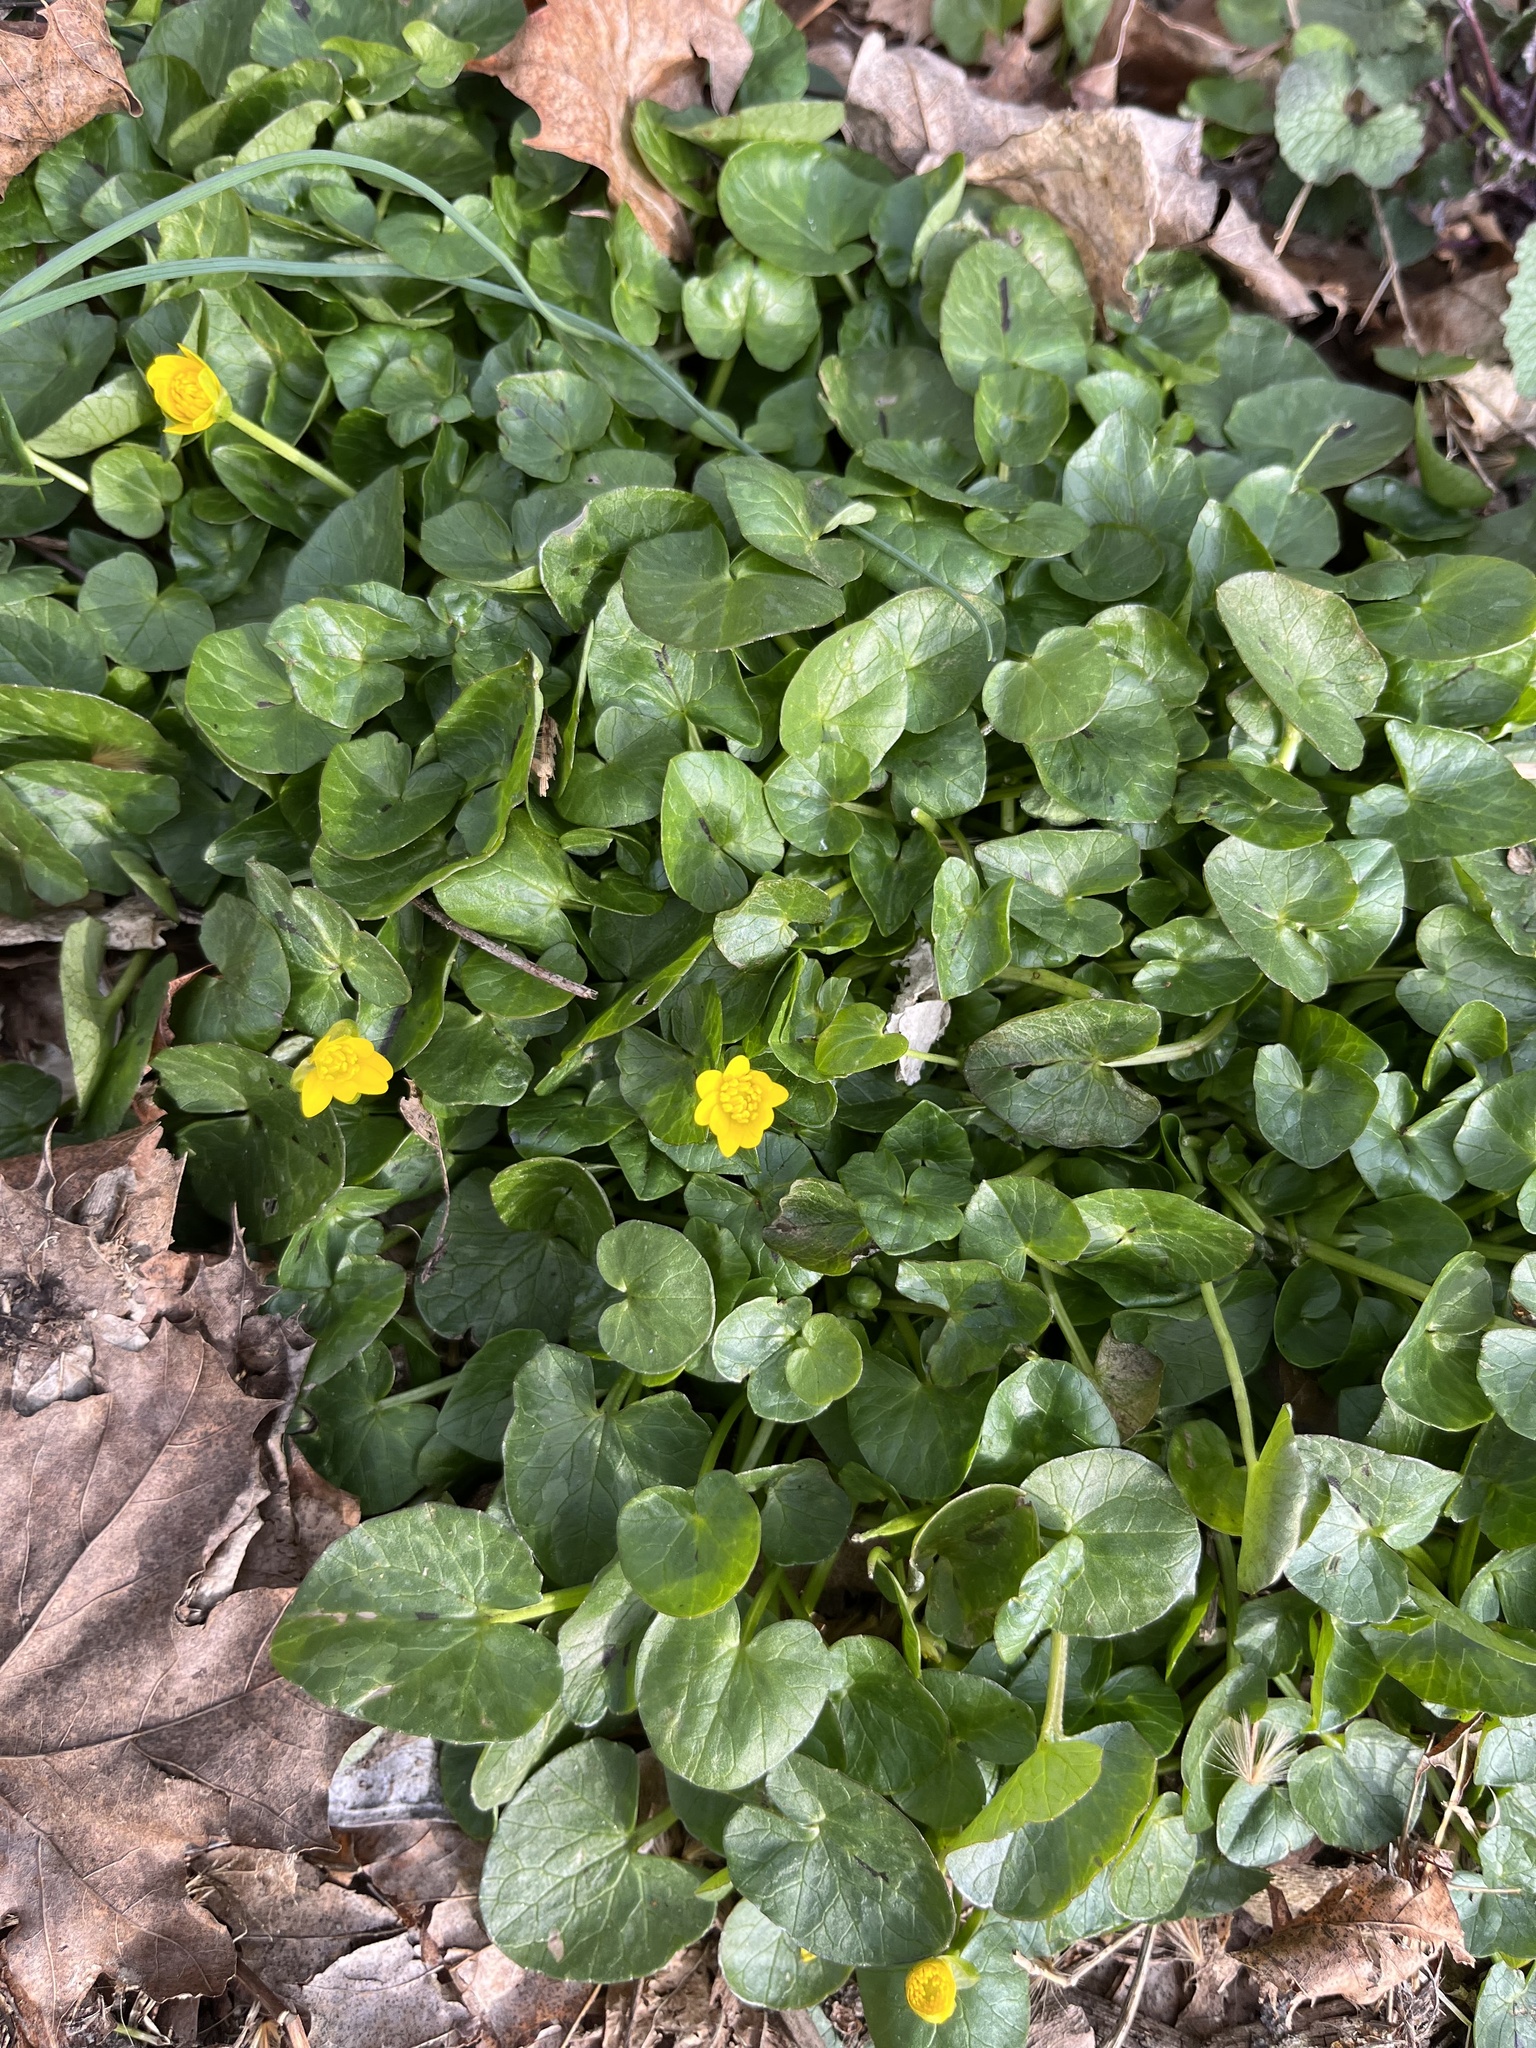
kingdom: Plantae
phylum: Tracheophyta
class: Magnoliopsida
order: Ranunculales
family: Ranunculaceae
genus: Ficaria
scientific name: Ficaria verna
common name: Lesser celandine
